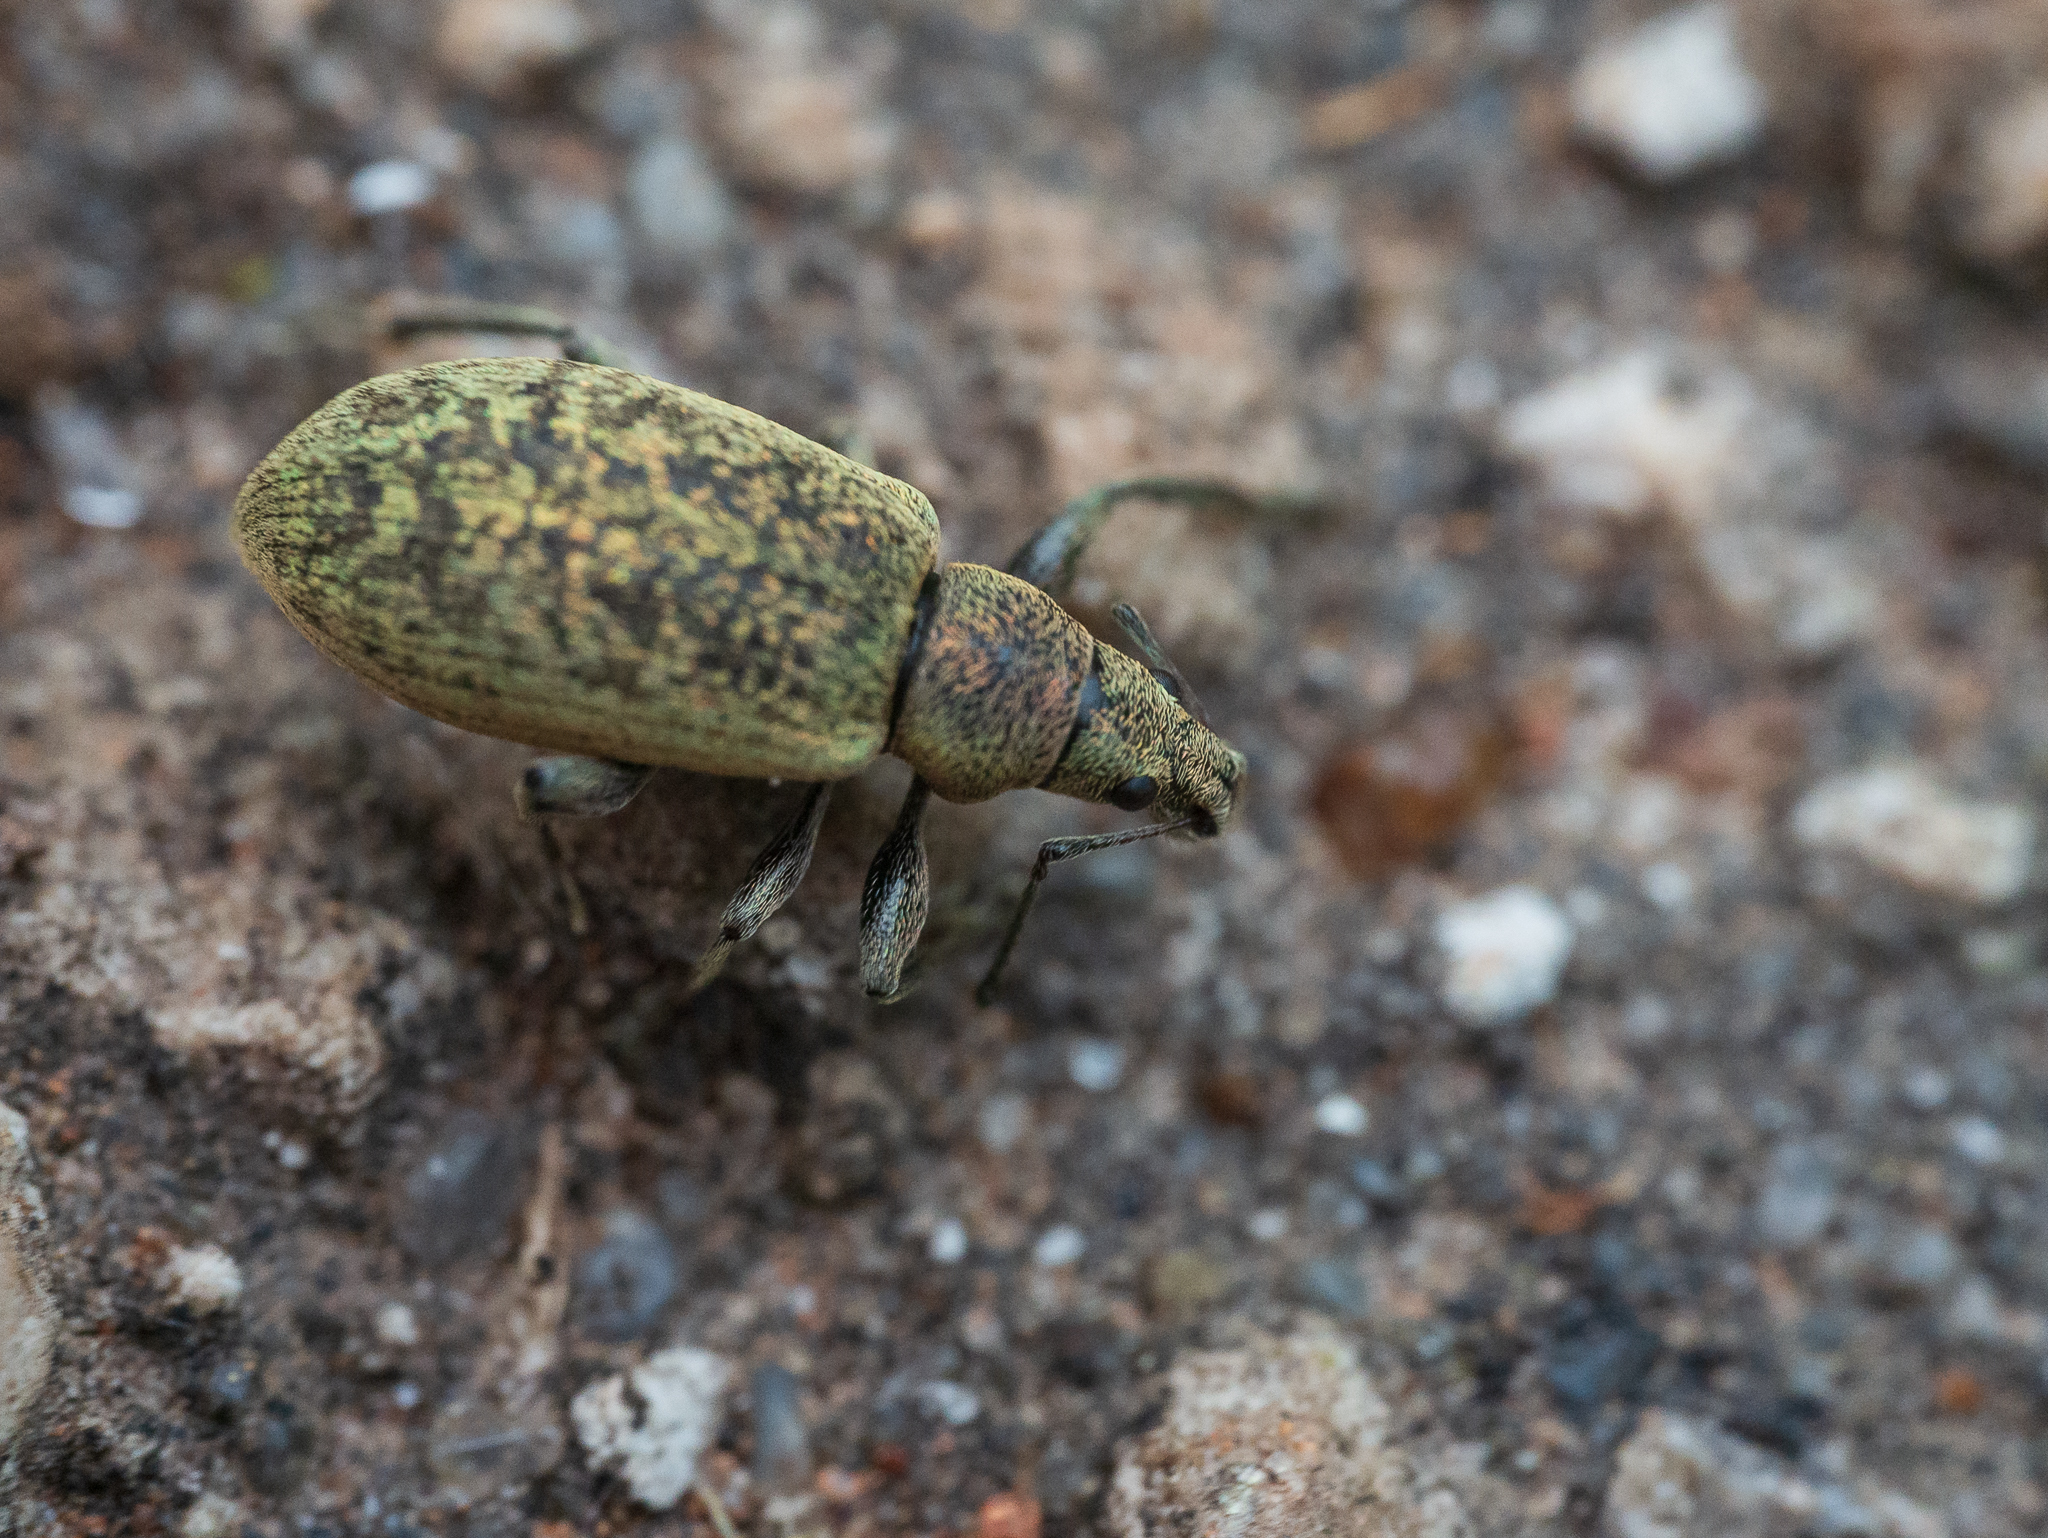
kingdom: Animalia
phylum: Arthropoda
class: Insecta
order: Coleoptera
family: Curculionidae
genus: Phyllobius
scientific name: Phyllobius pomaceus
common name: Green nettle weevil
